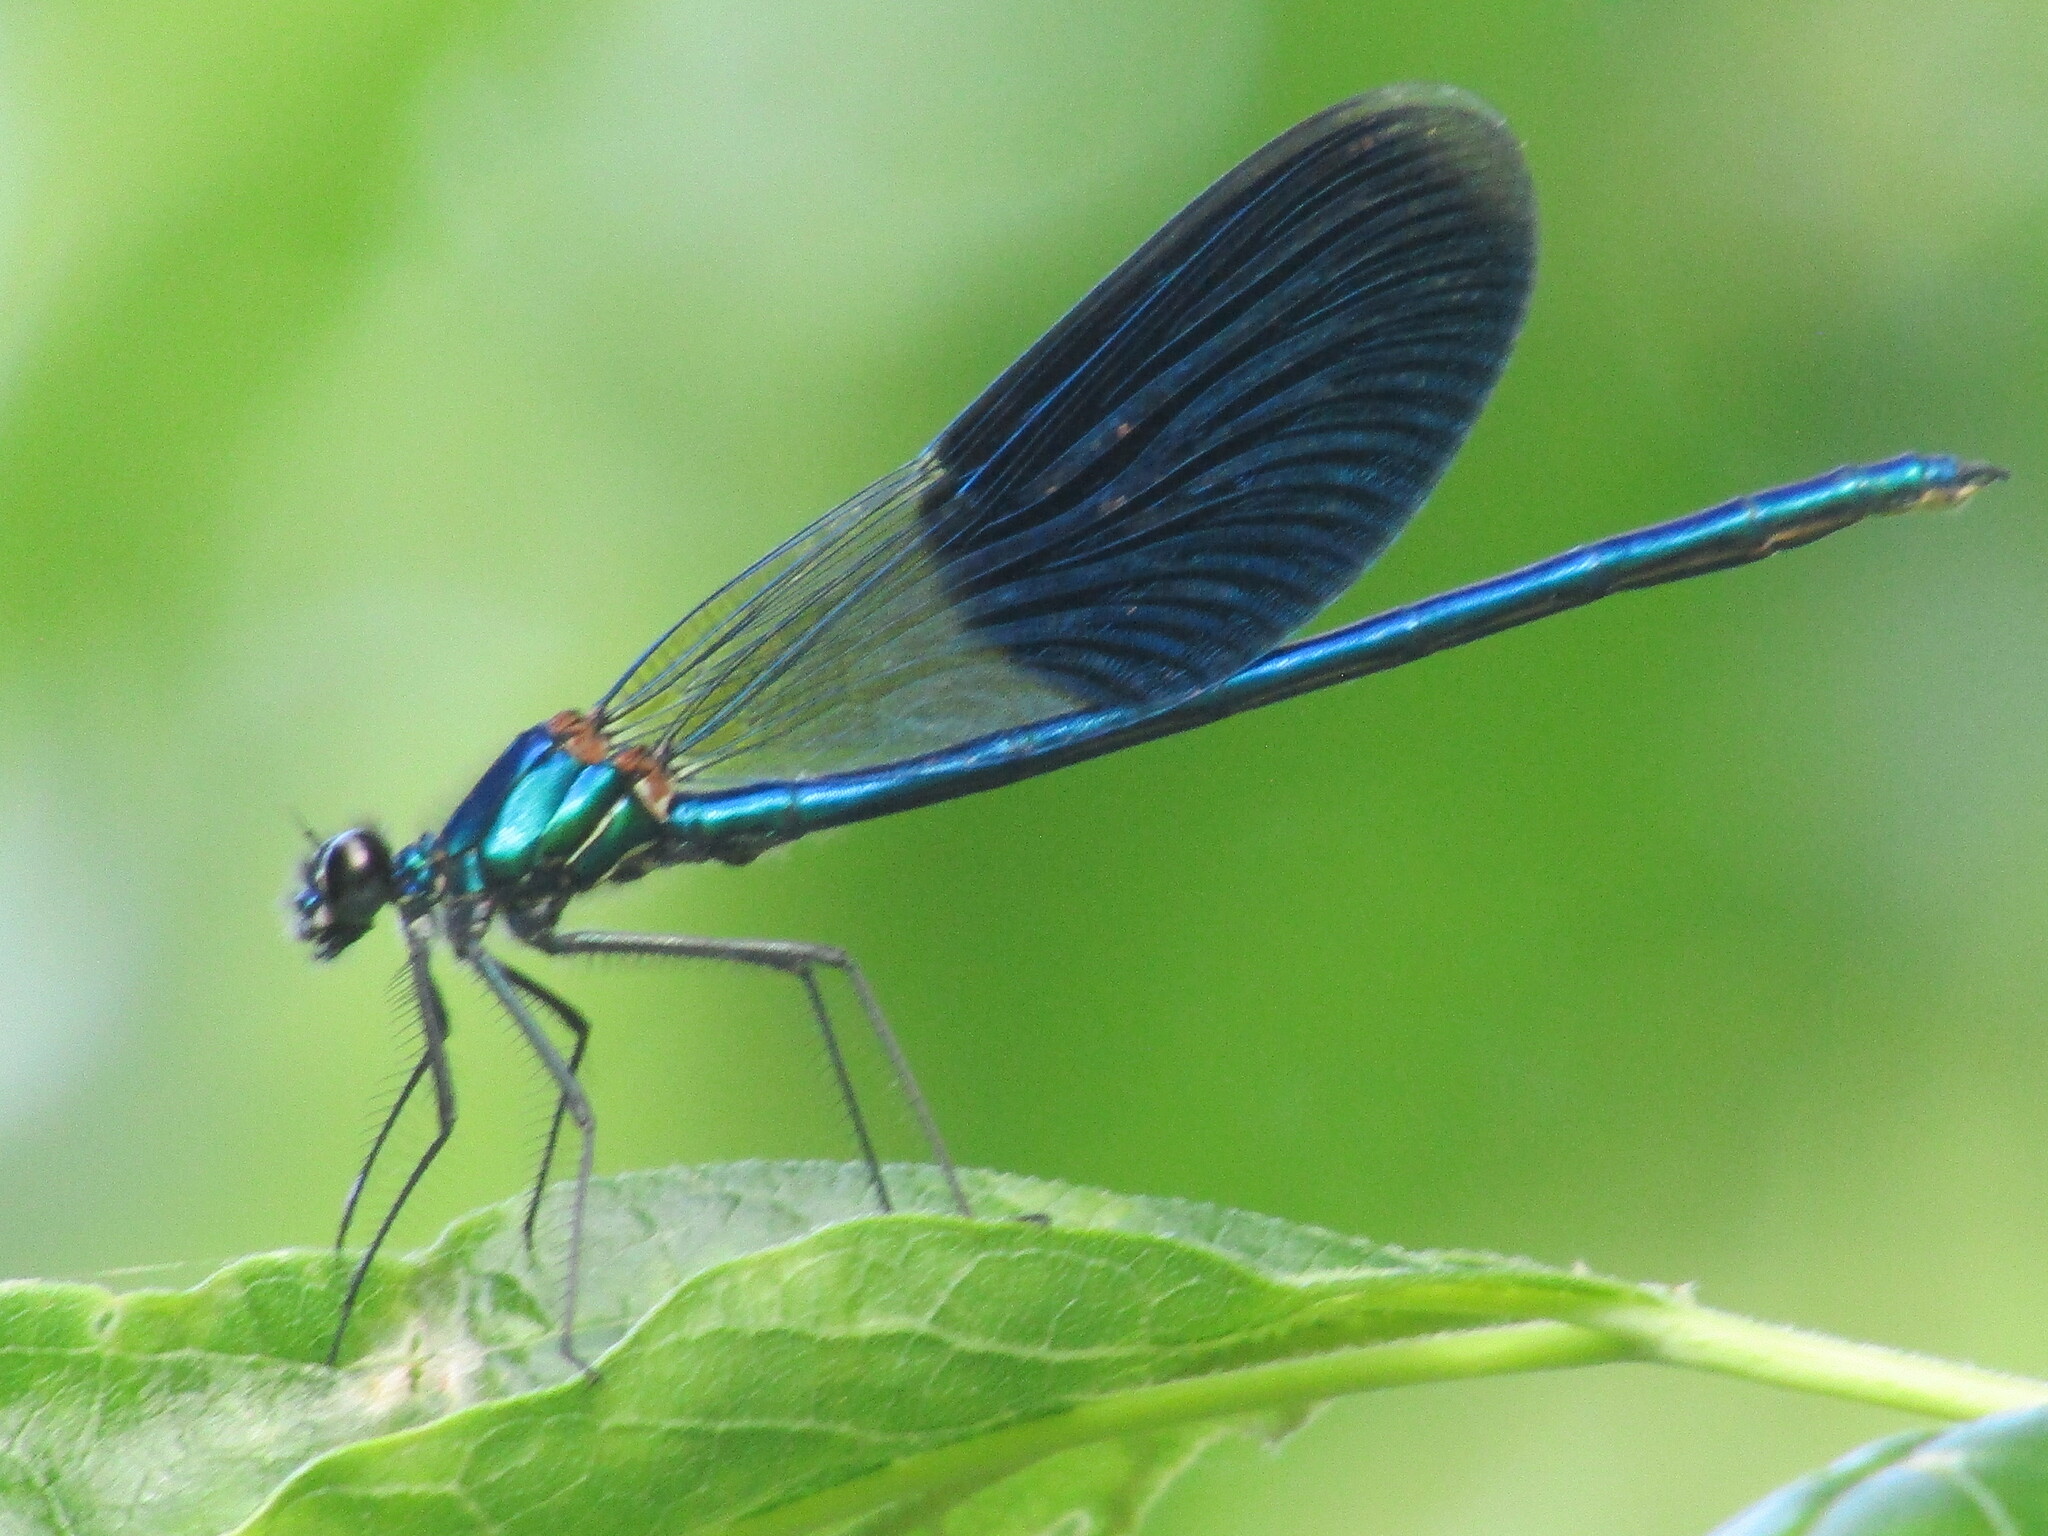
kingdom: Animalia
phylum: Arthropoda
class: Insecta
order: Odonata
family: Calopterygidae
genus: Calopteryx
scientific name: Calopteryx splendens
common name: Banded demoiselle
